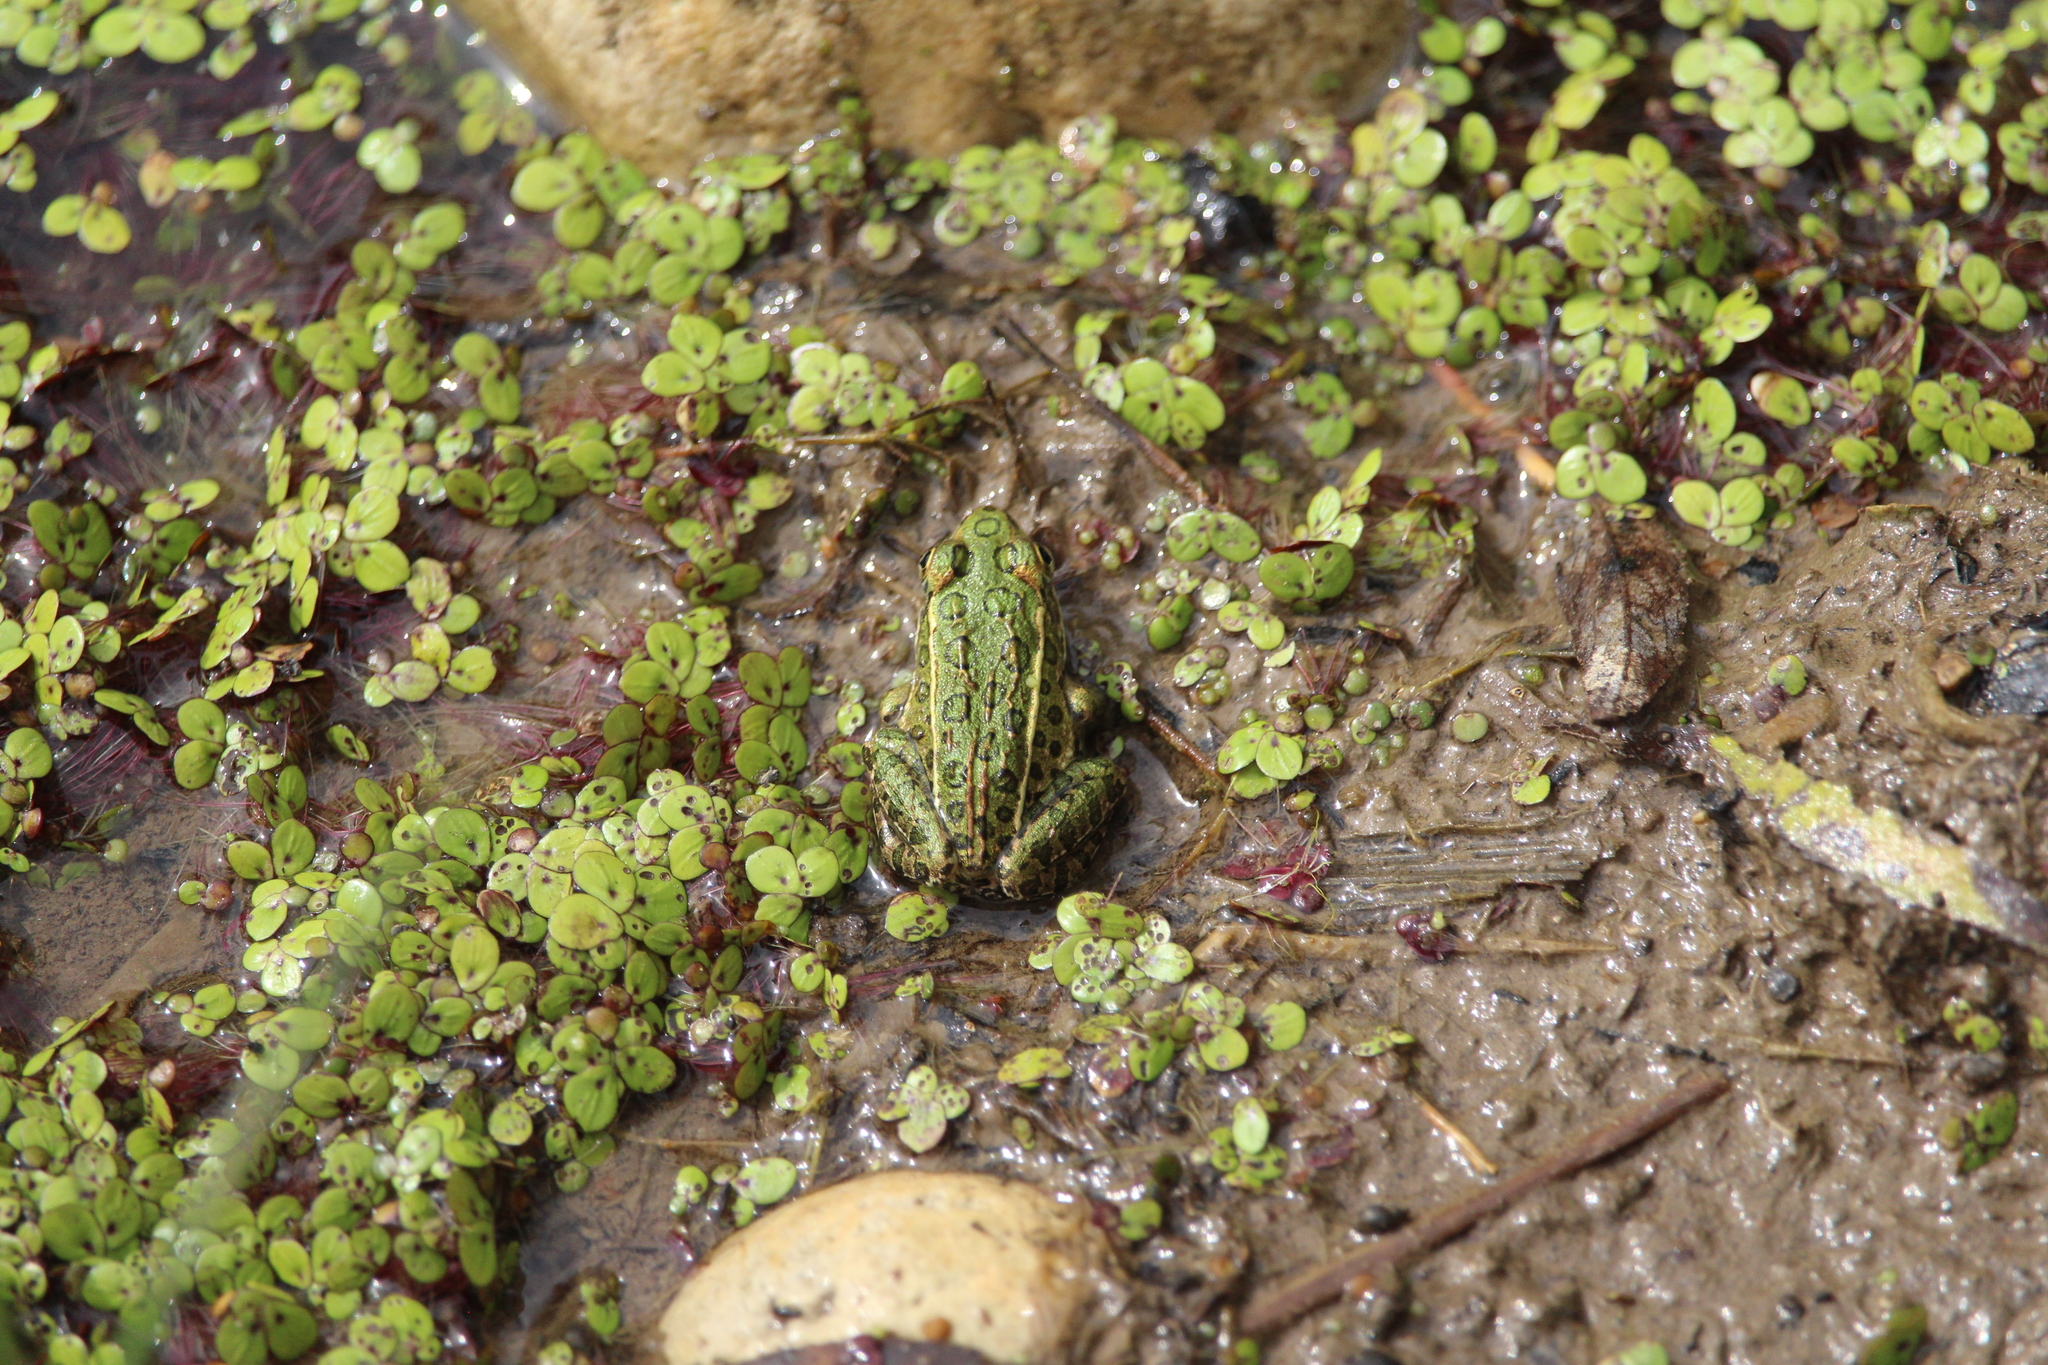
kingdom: Animalia
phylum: Chordata
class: Amphibia
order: Anura
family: Ranidae
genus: Lithobates
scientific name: Lithobates pipiens
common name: Northern leopard frog
